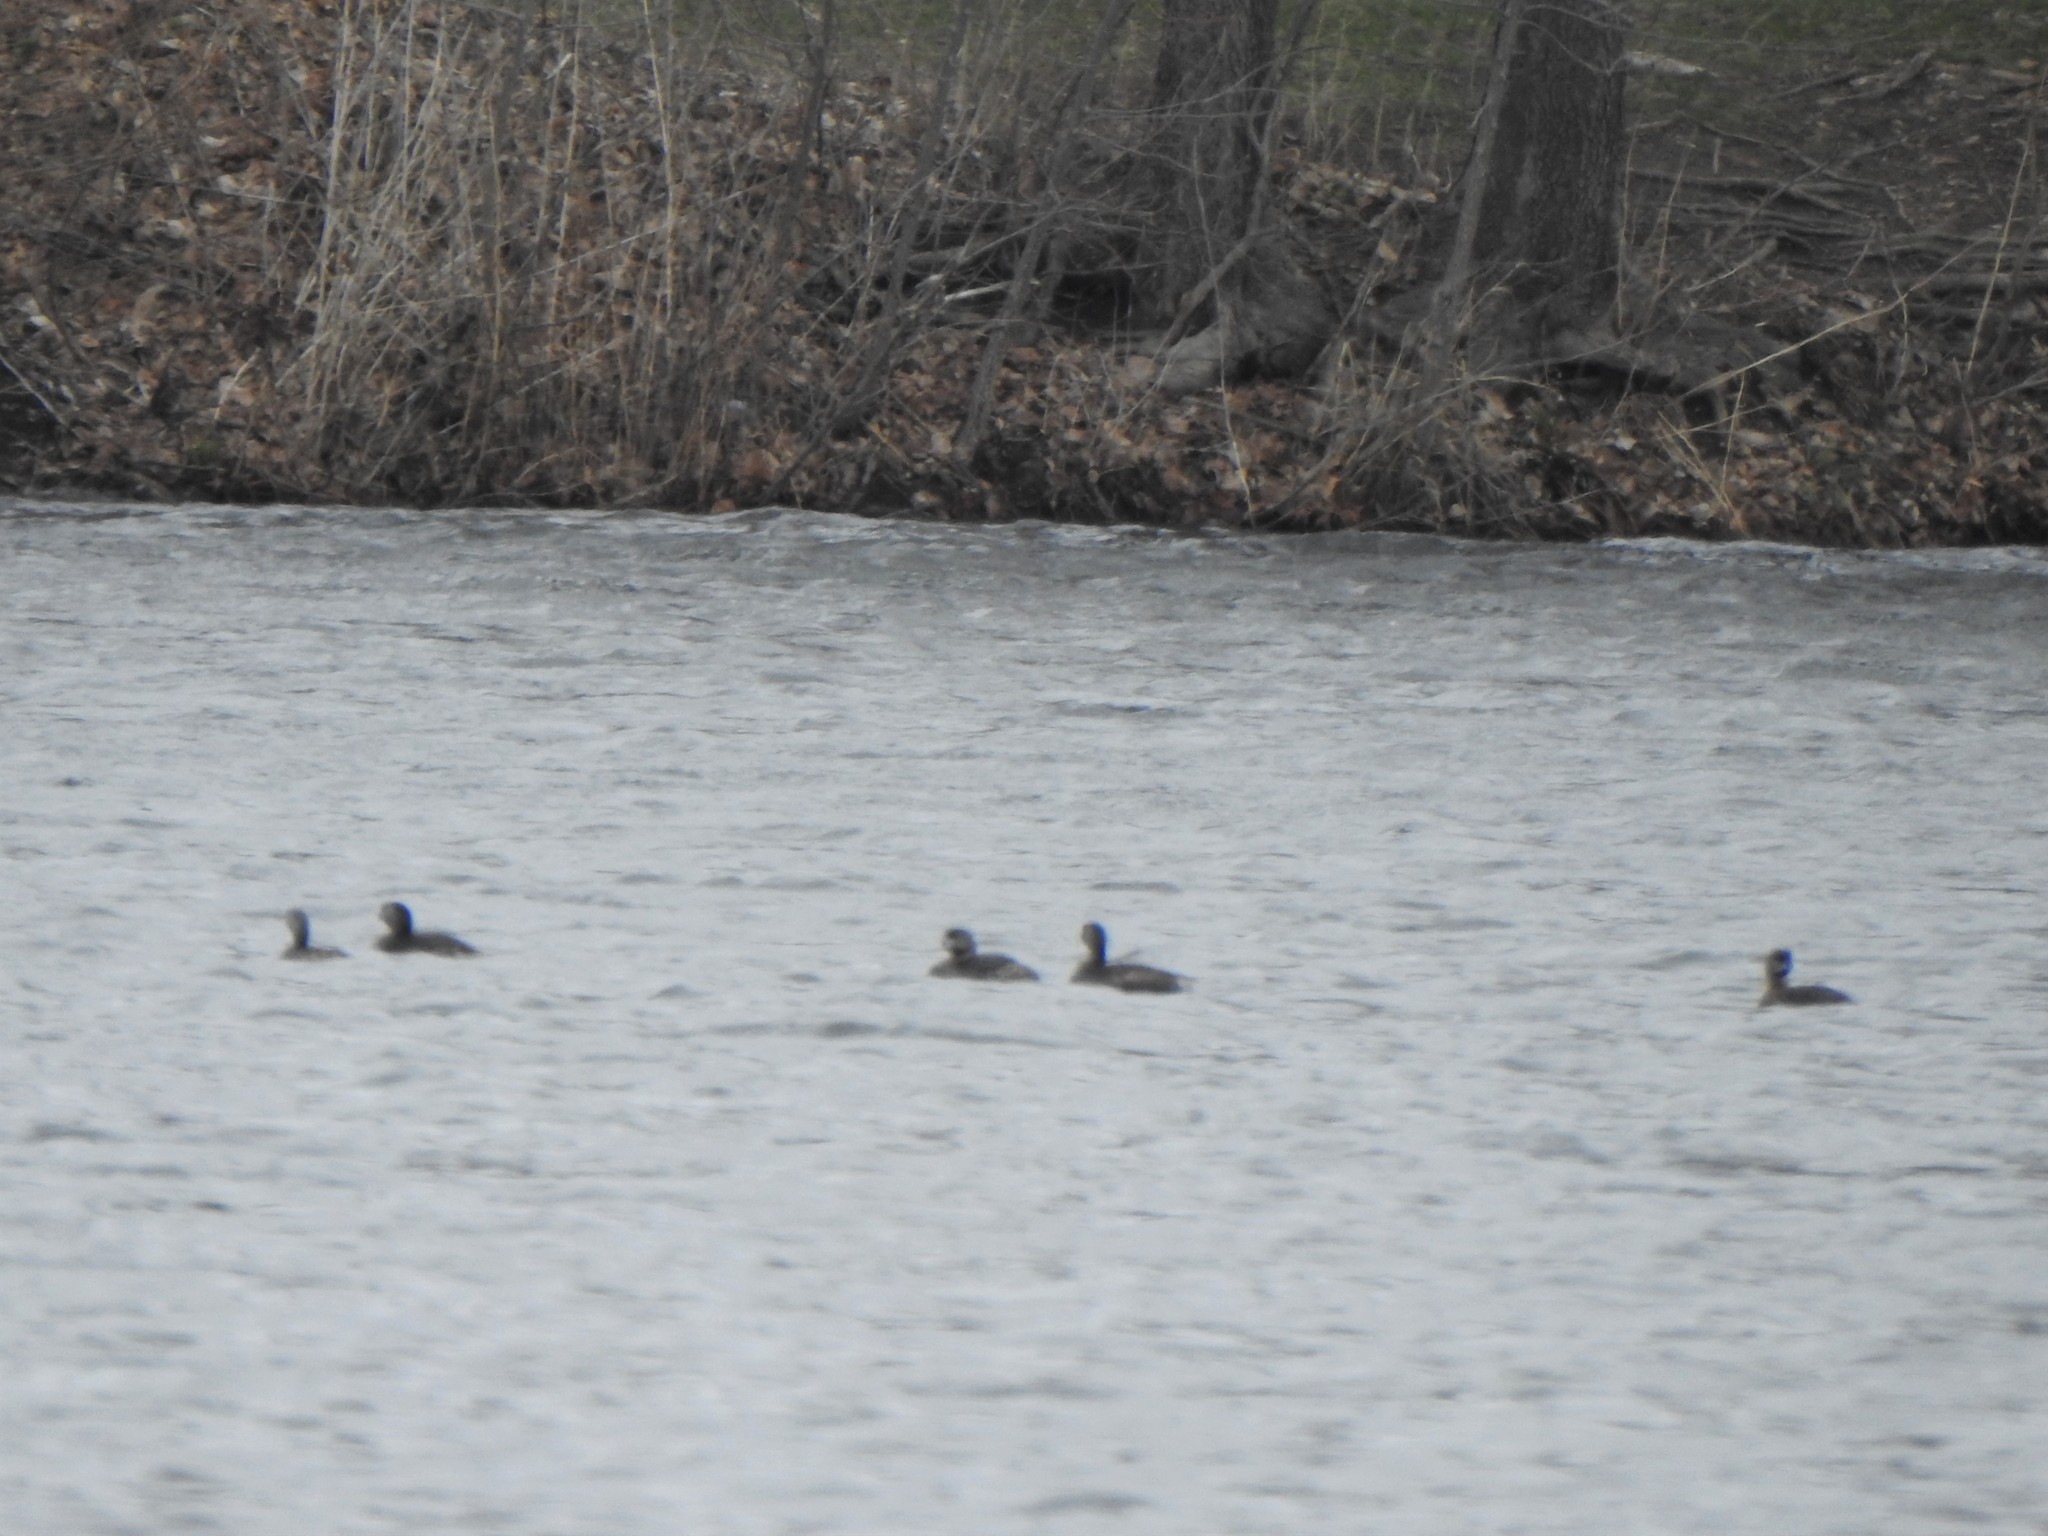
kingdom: Animalia
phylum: Chordata
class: Aves
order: Podicipediformes
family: Podicipedidae
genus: Podilymbus
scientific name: Podilymbus podiceps
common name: Pied-billed grebe
